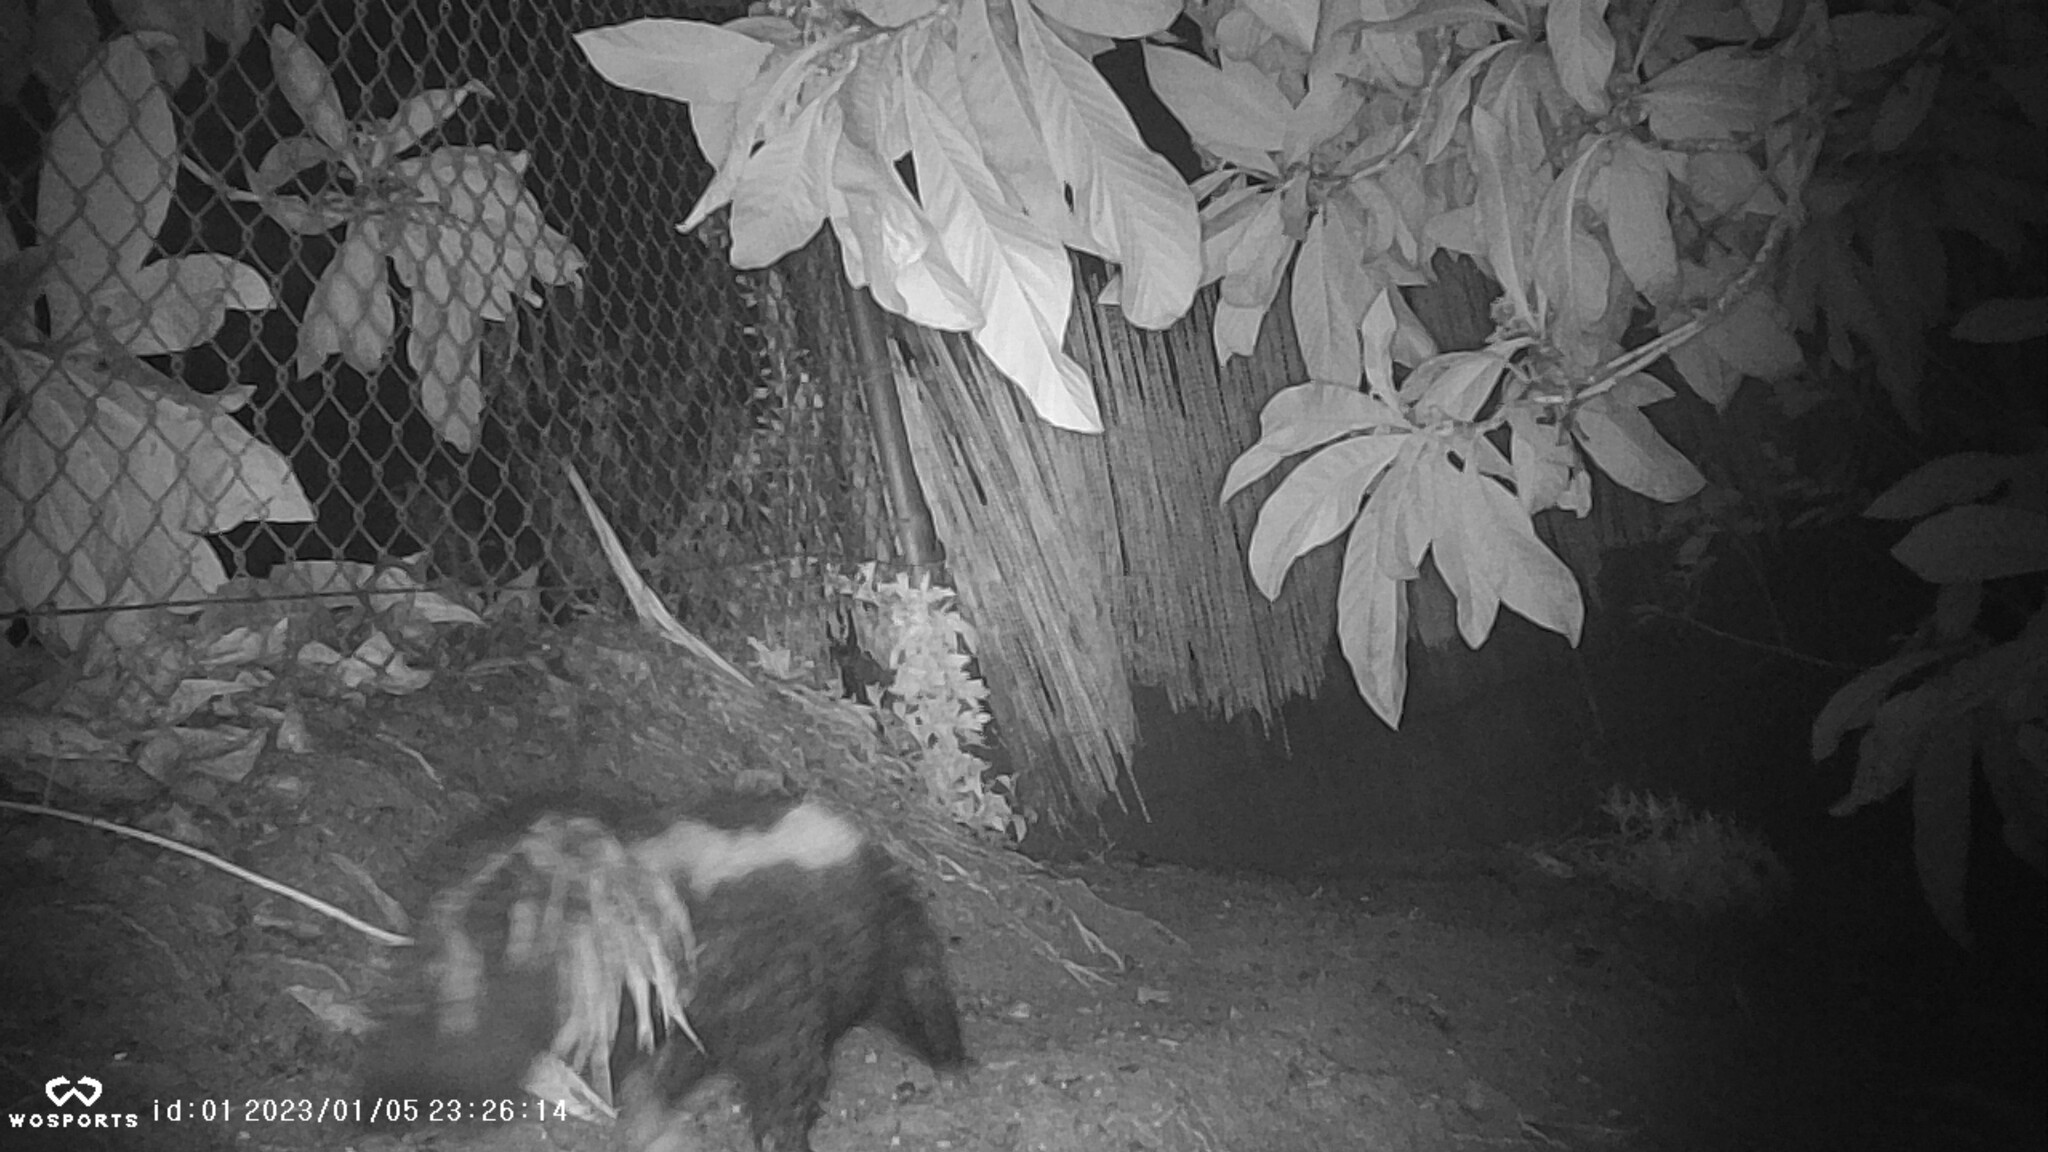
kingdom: Animalia
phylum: Chordata
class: Mammalia
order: Carnivora
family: Mephitidae
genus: Mephitis
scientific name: Mephitis mephitis
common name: Striped skunk
